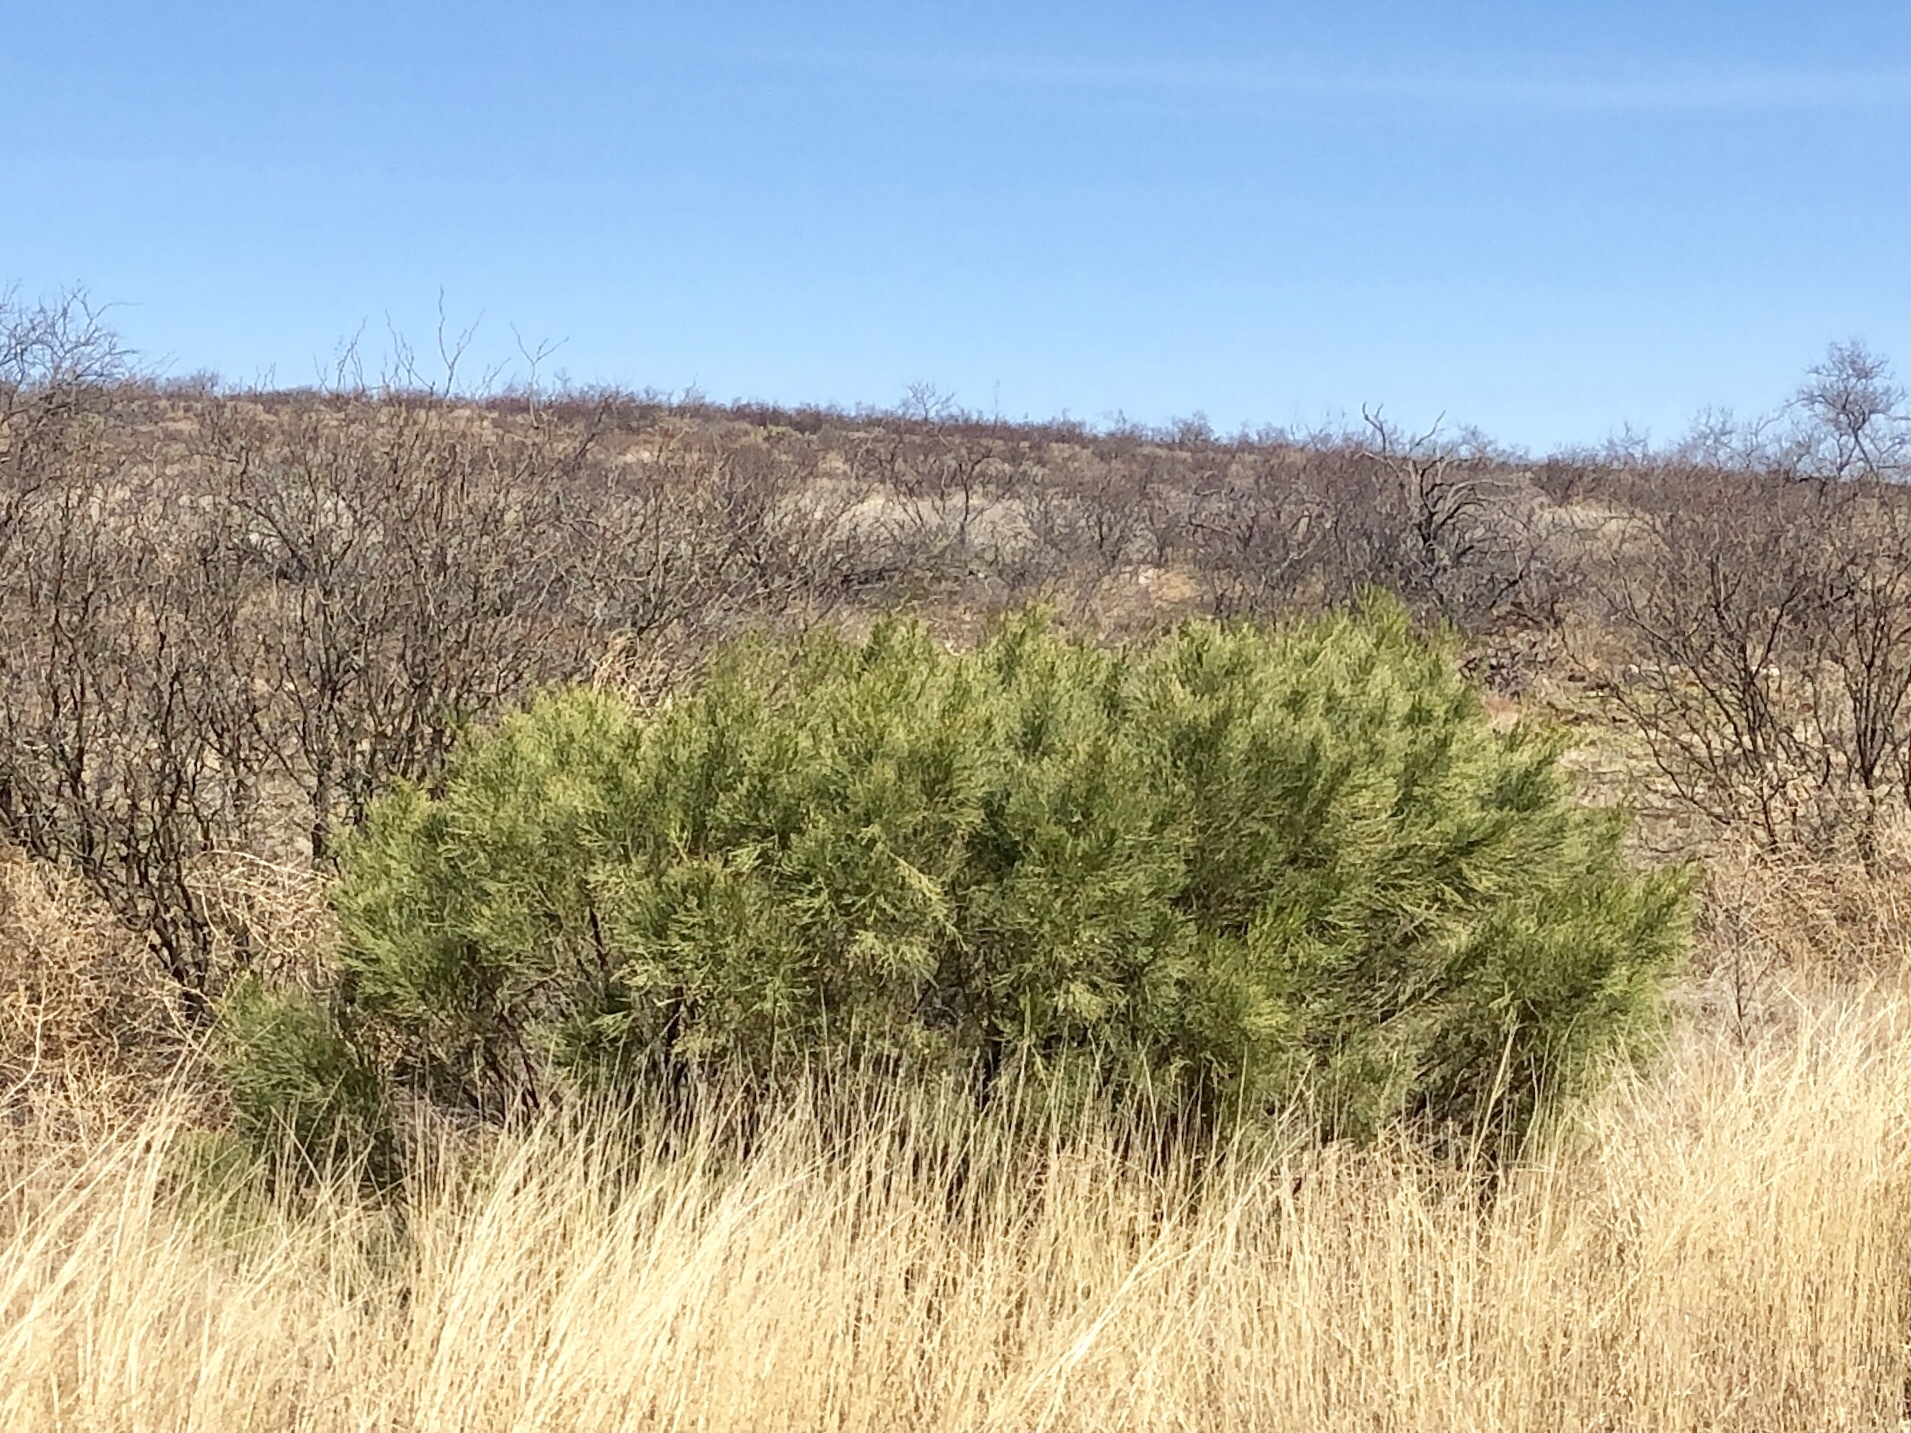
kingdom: Plantae
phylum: Tracheophyta
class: Magnoliopsida
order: Asterales
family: Asteraceae
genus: Baccharis
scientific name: Baccharis sarothroides
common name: Desert-broom
